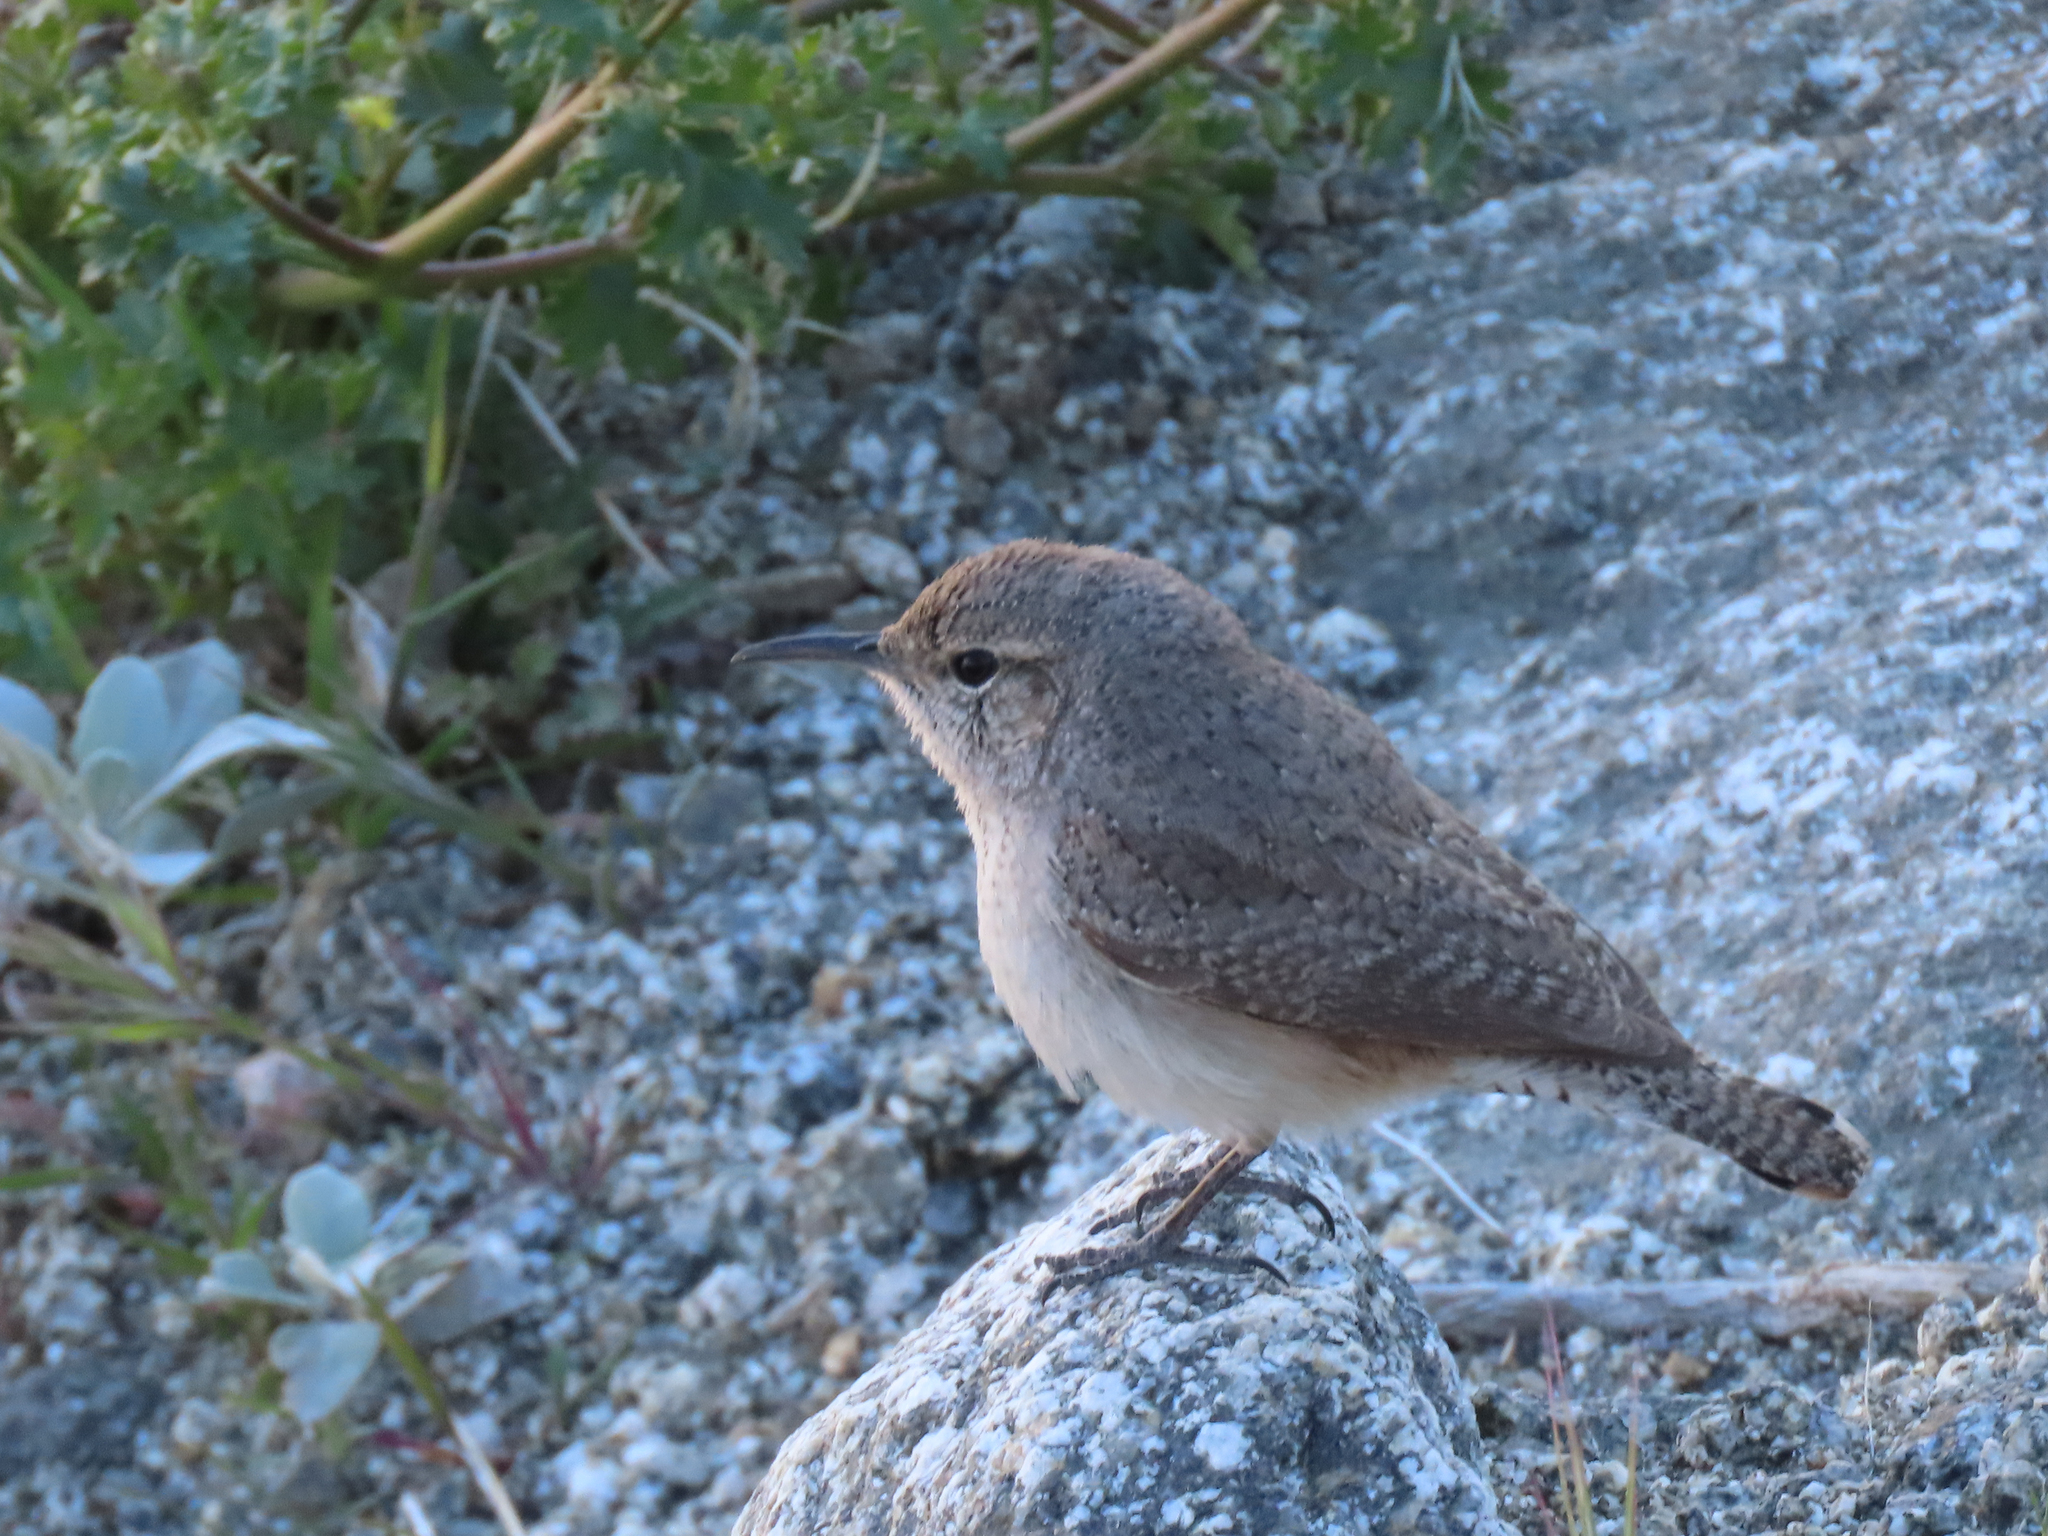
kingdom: Animalia
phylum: Chordata
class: Aves
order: Passeriformes
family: Troglodytidae
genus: Salpinctes
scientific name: Salpinctes obsoletus
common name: Rock wren
